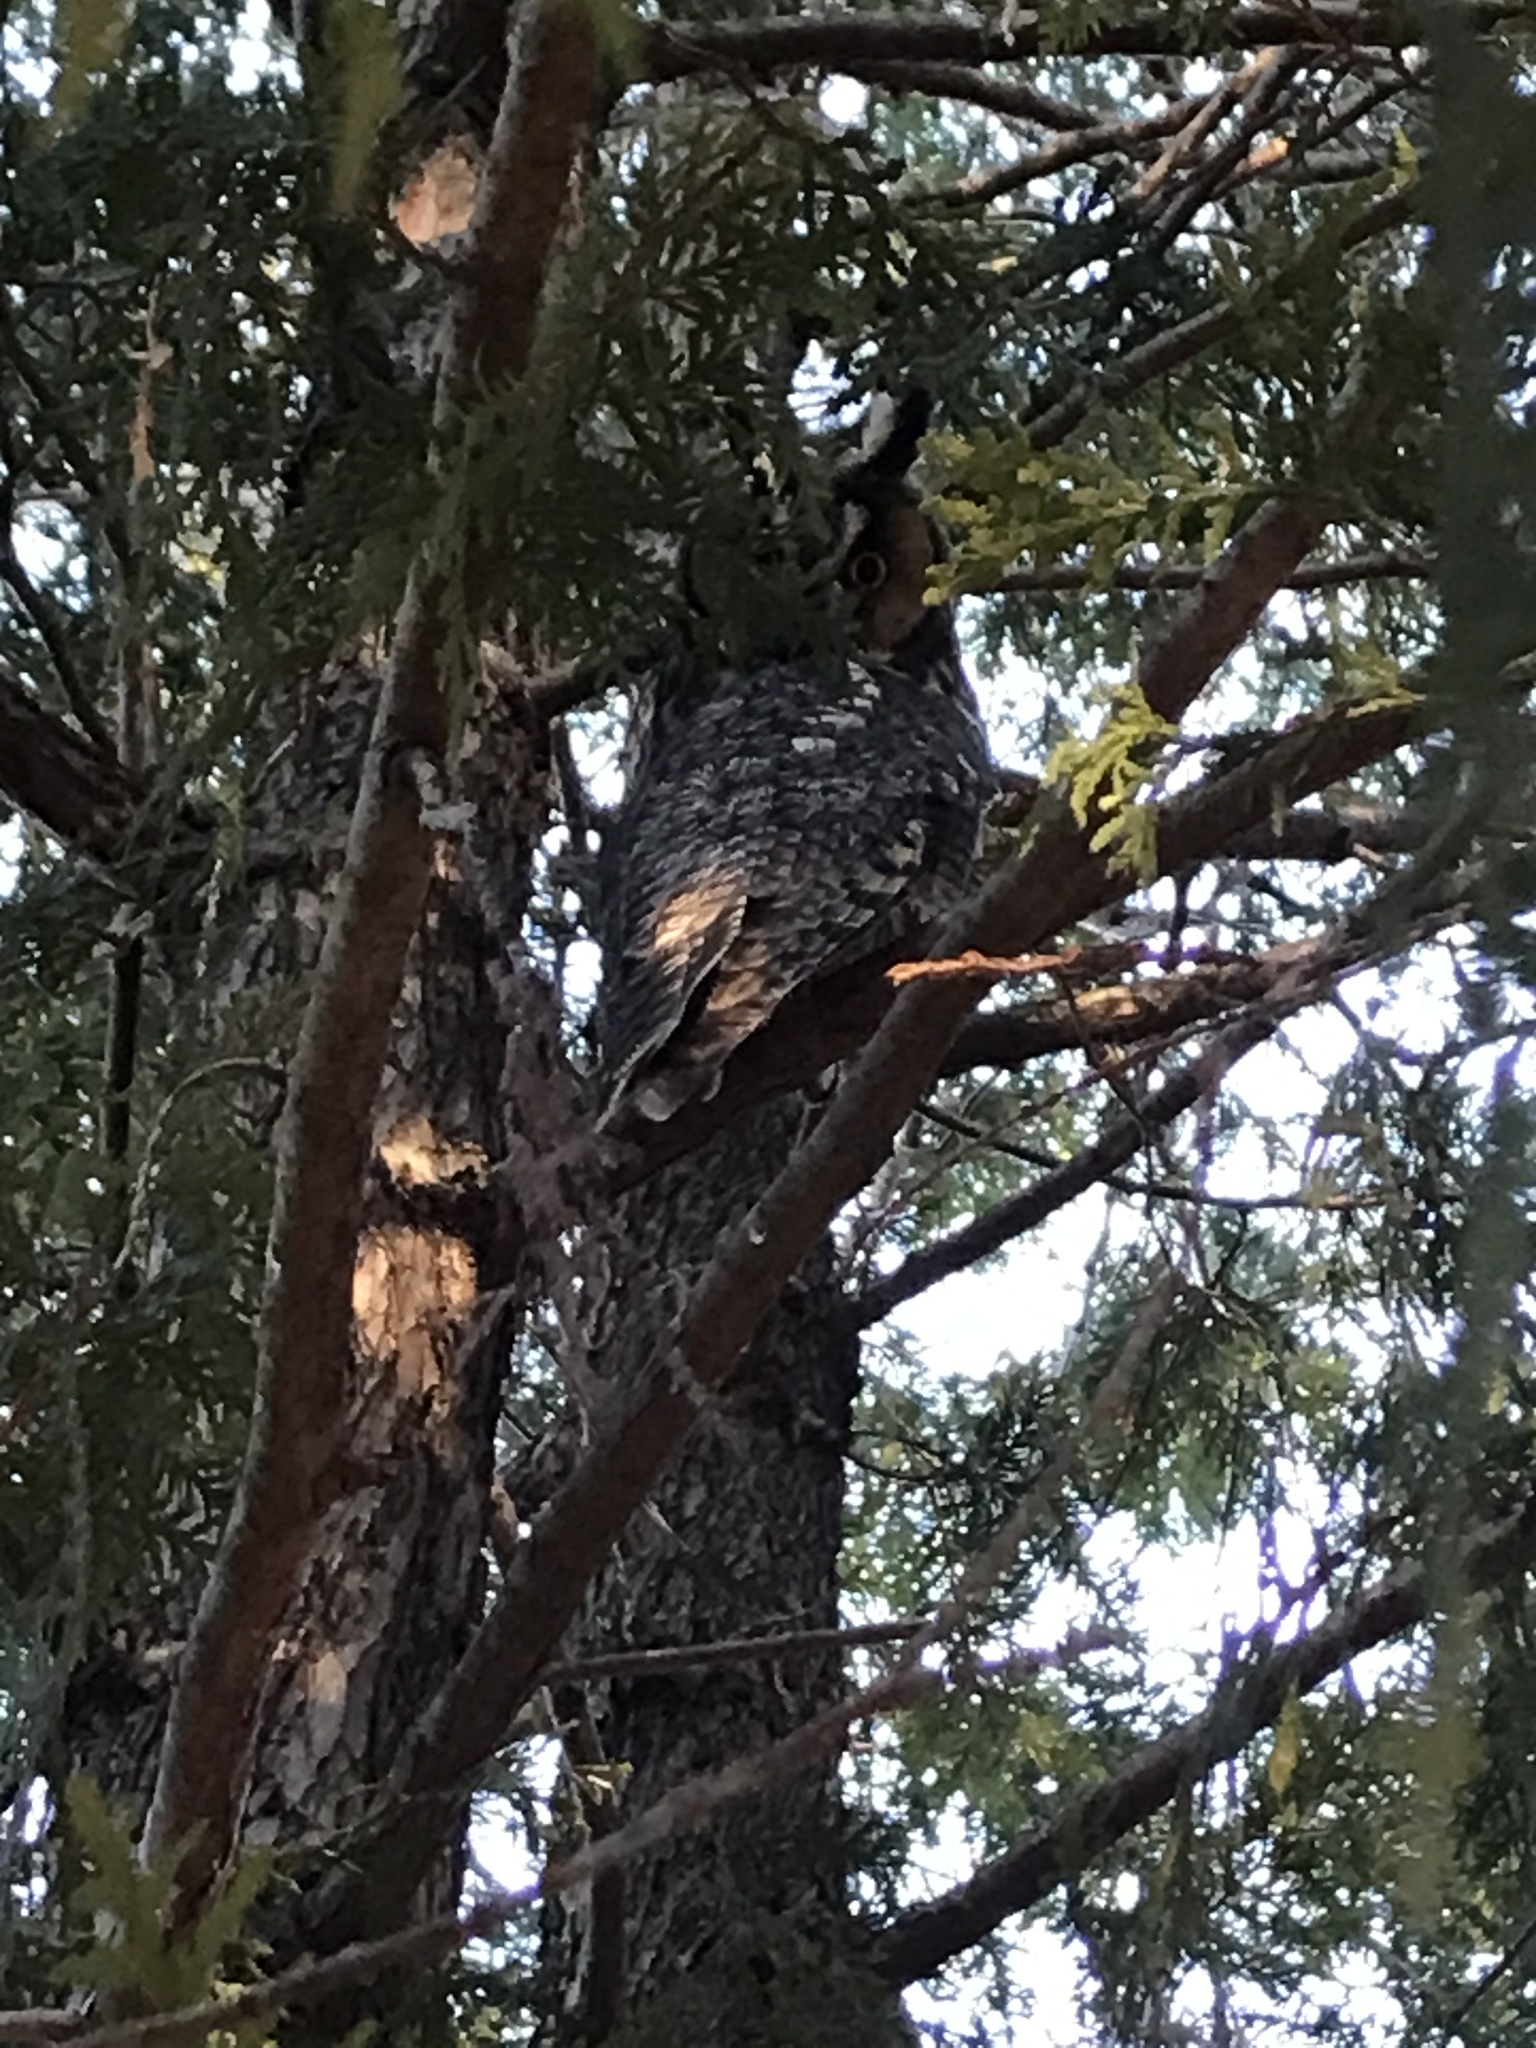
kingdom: Animalia
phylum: Chordata
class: Aves
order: Strigiformes
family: Strigidae
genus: Asio
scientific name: Asio otus
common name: Long-eared owl
